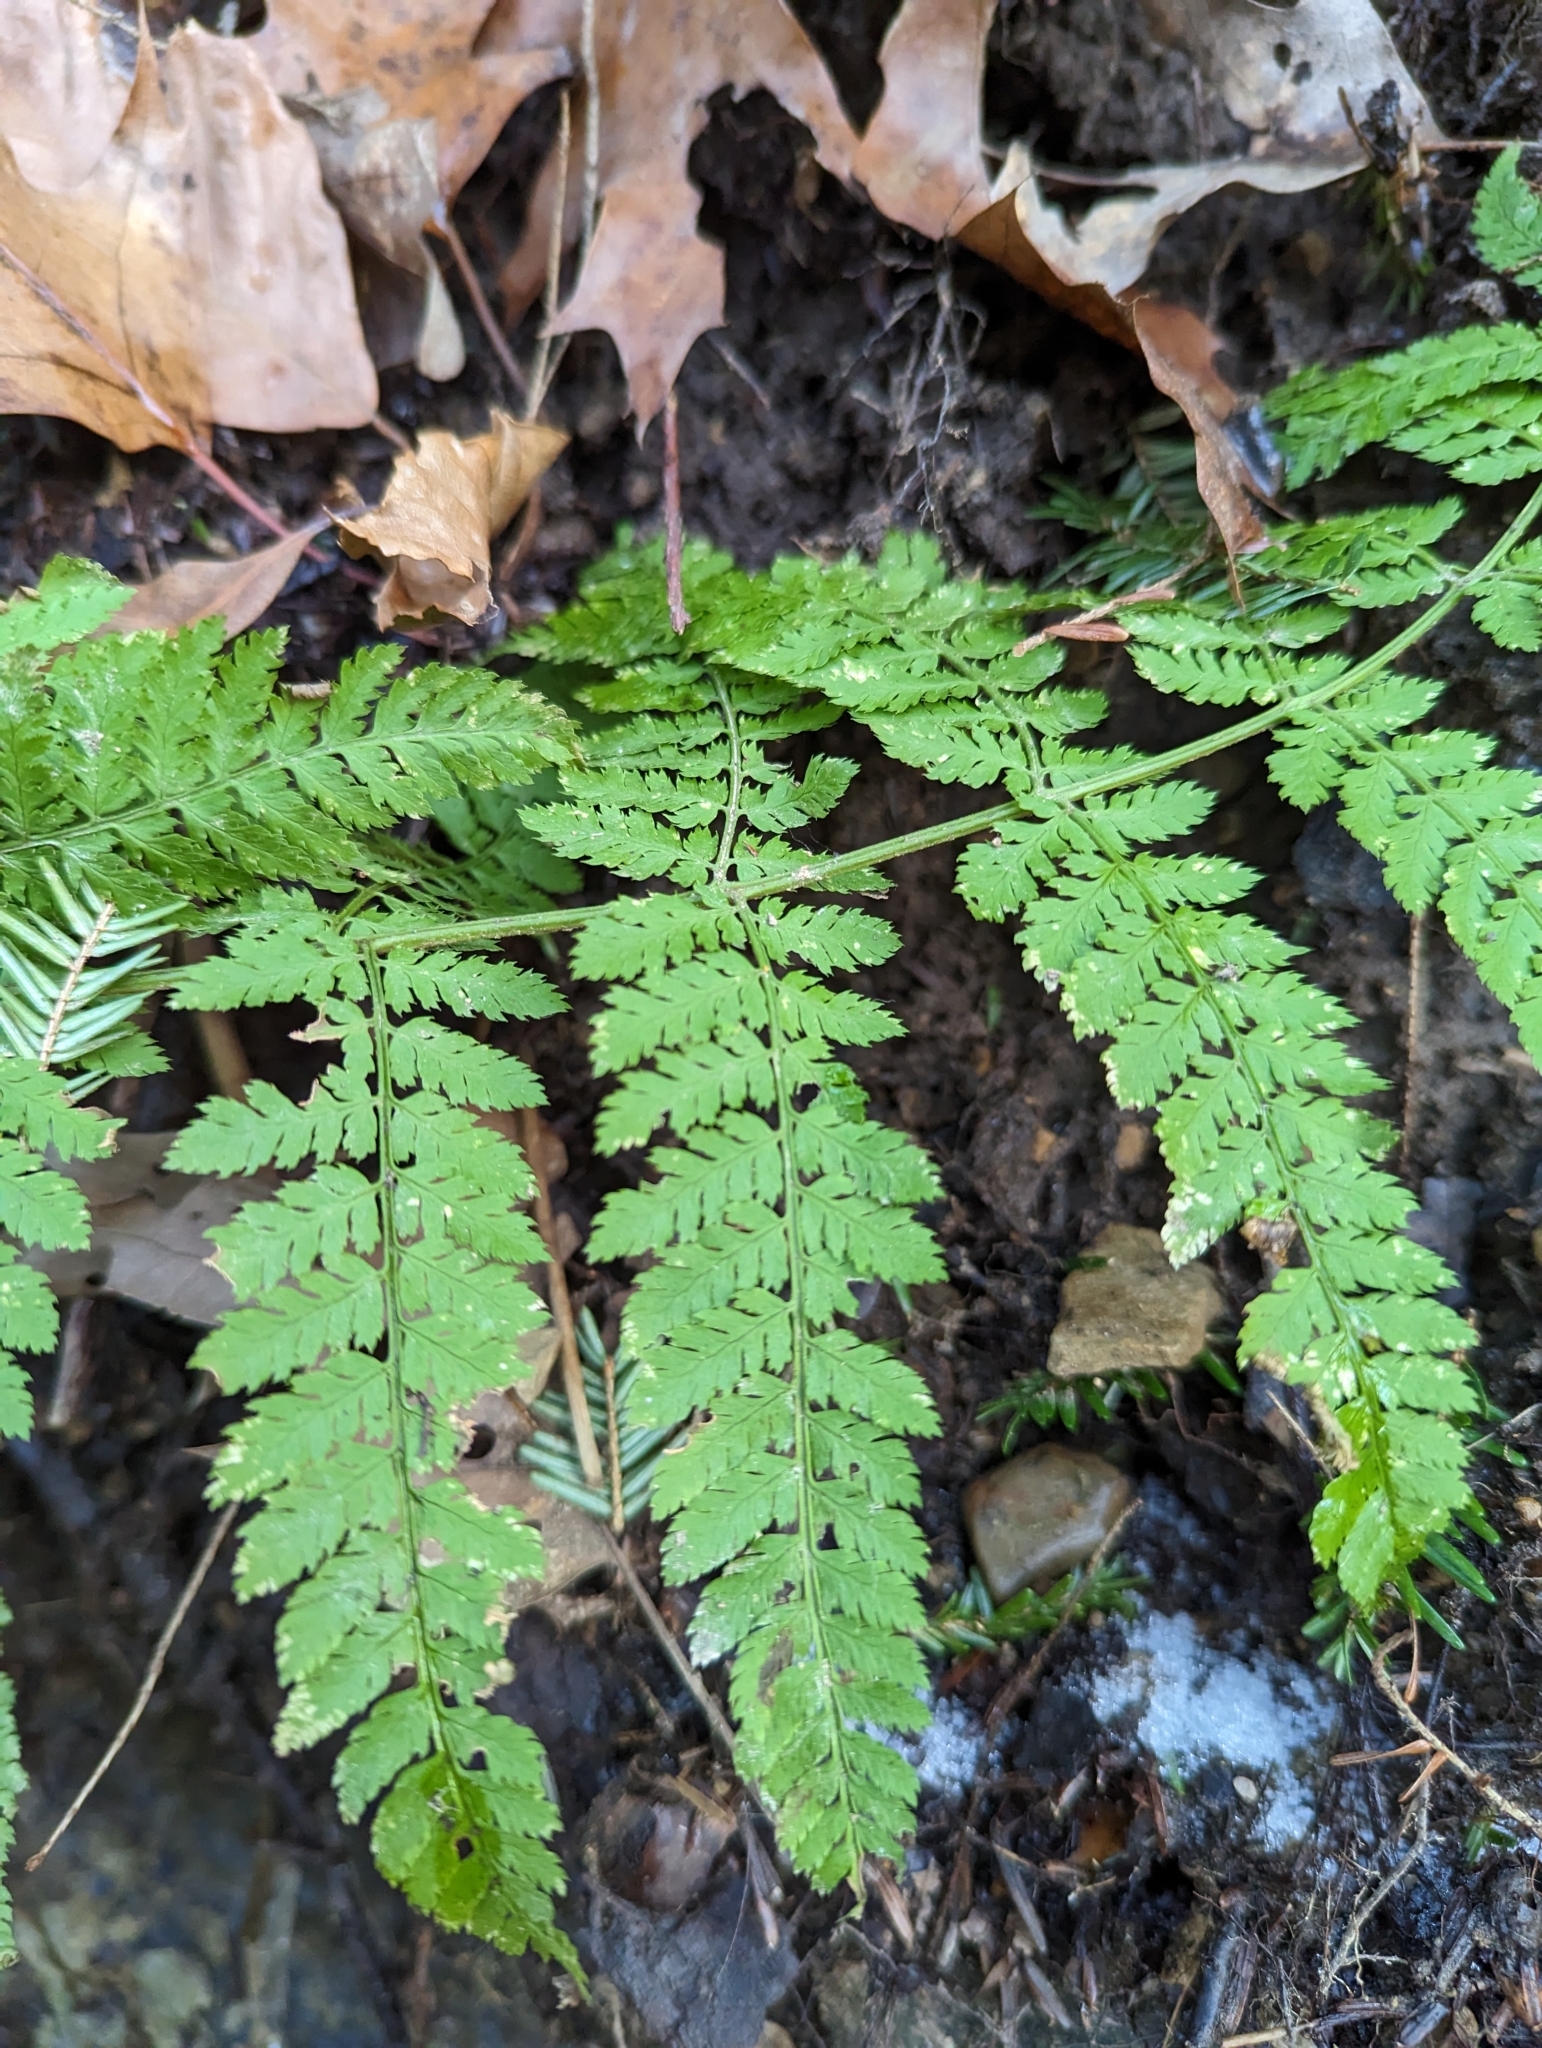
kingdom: Plantae
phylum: Tracheophyta
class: Polypodiopsida
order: Polypodiales
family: Dryopteridaceae
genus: Dryopteris
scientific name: Dryopteris intermedia
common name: Evergreen wood fern
